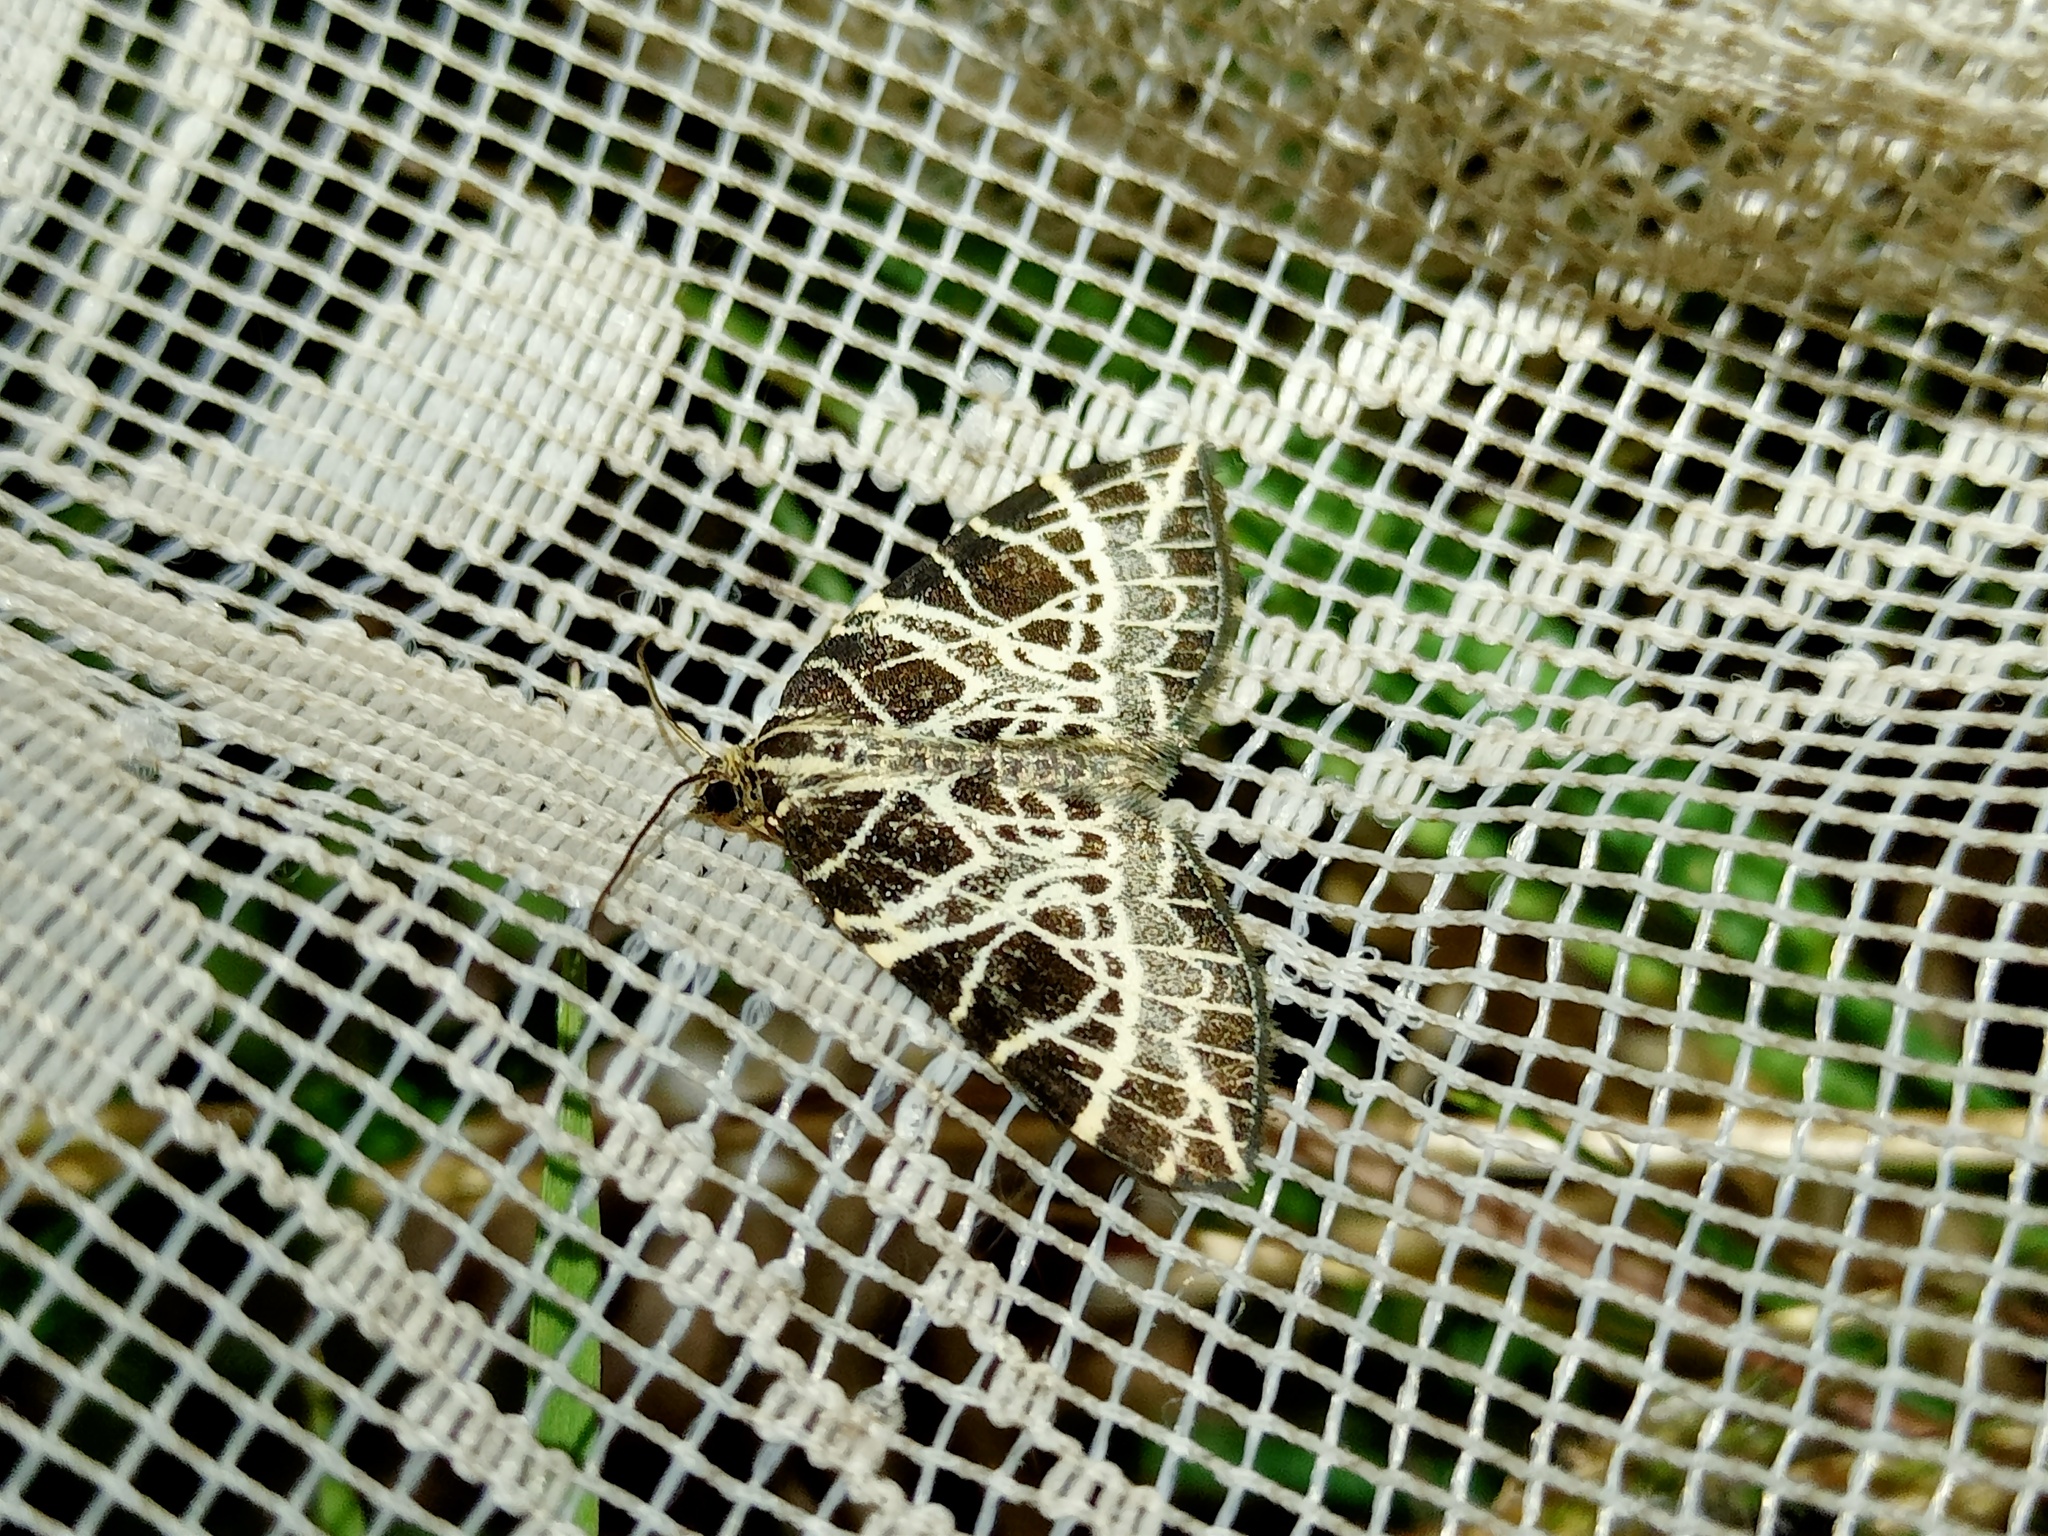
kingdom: Animalia
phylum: Arthropoda
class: Insecta
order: Lepidoptera
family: Geometridae
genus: Eustroma
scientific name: Eustroma reticulata
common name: Netted carpet
